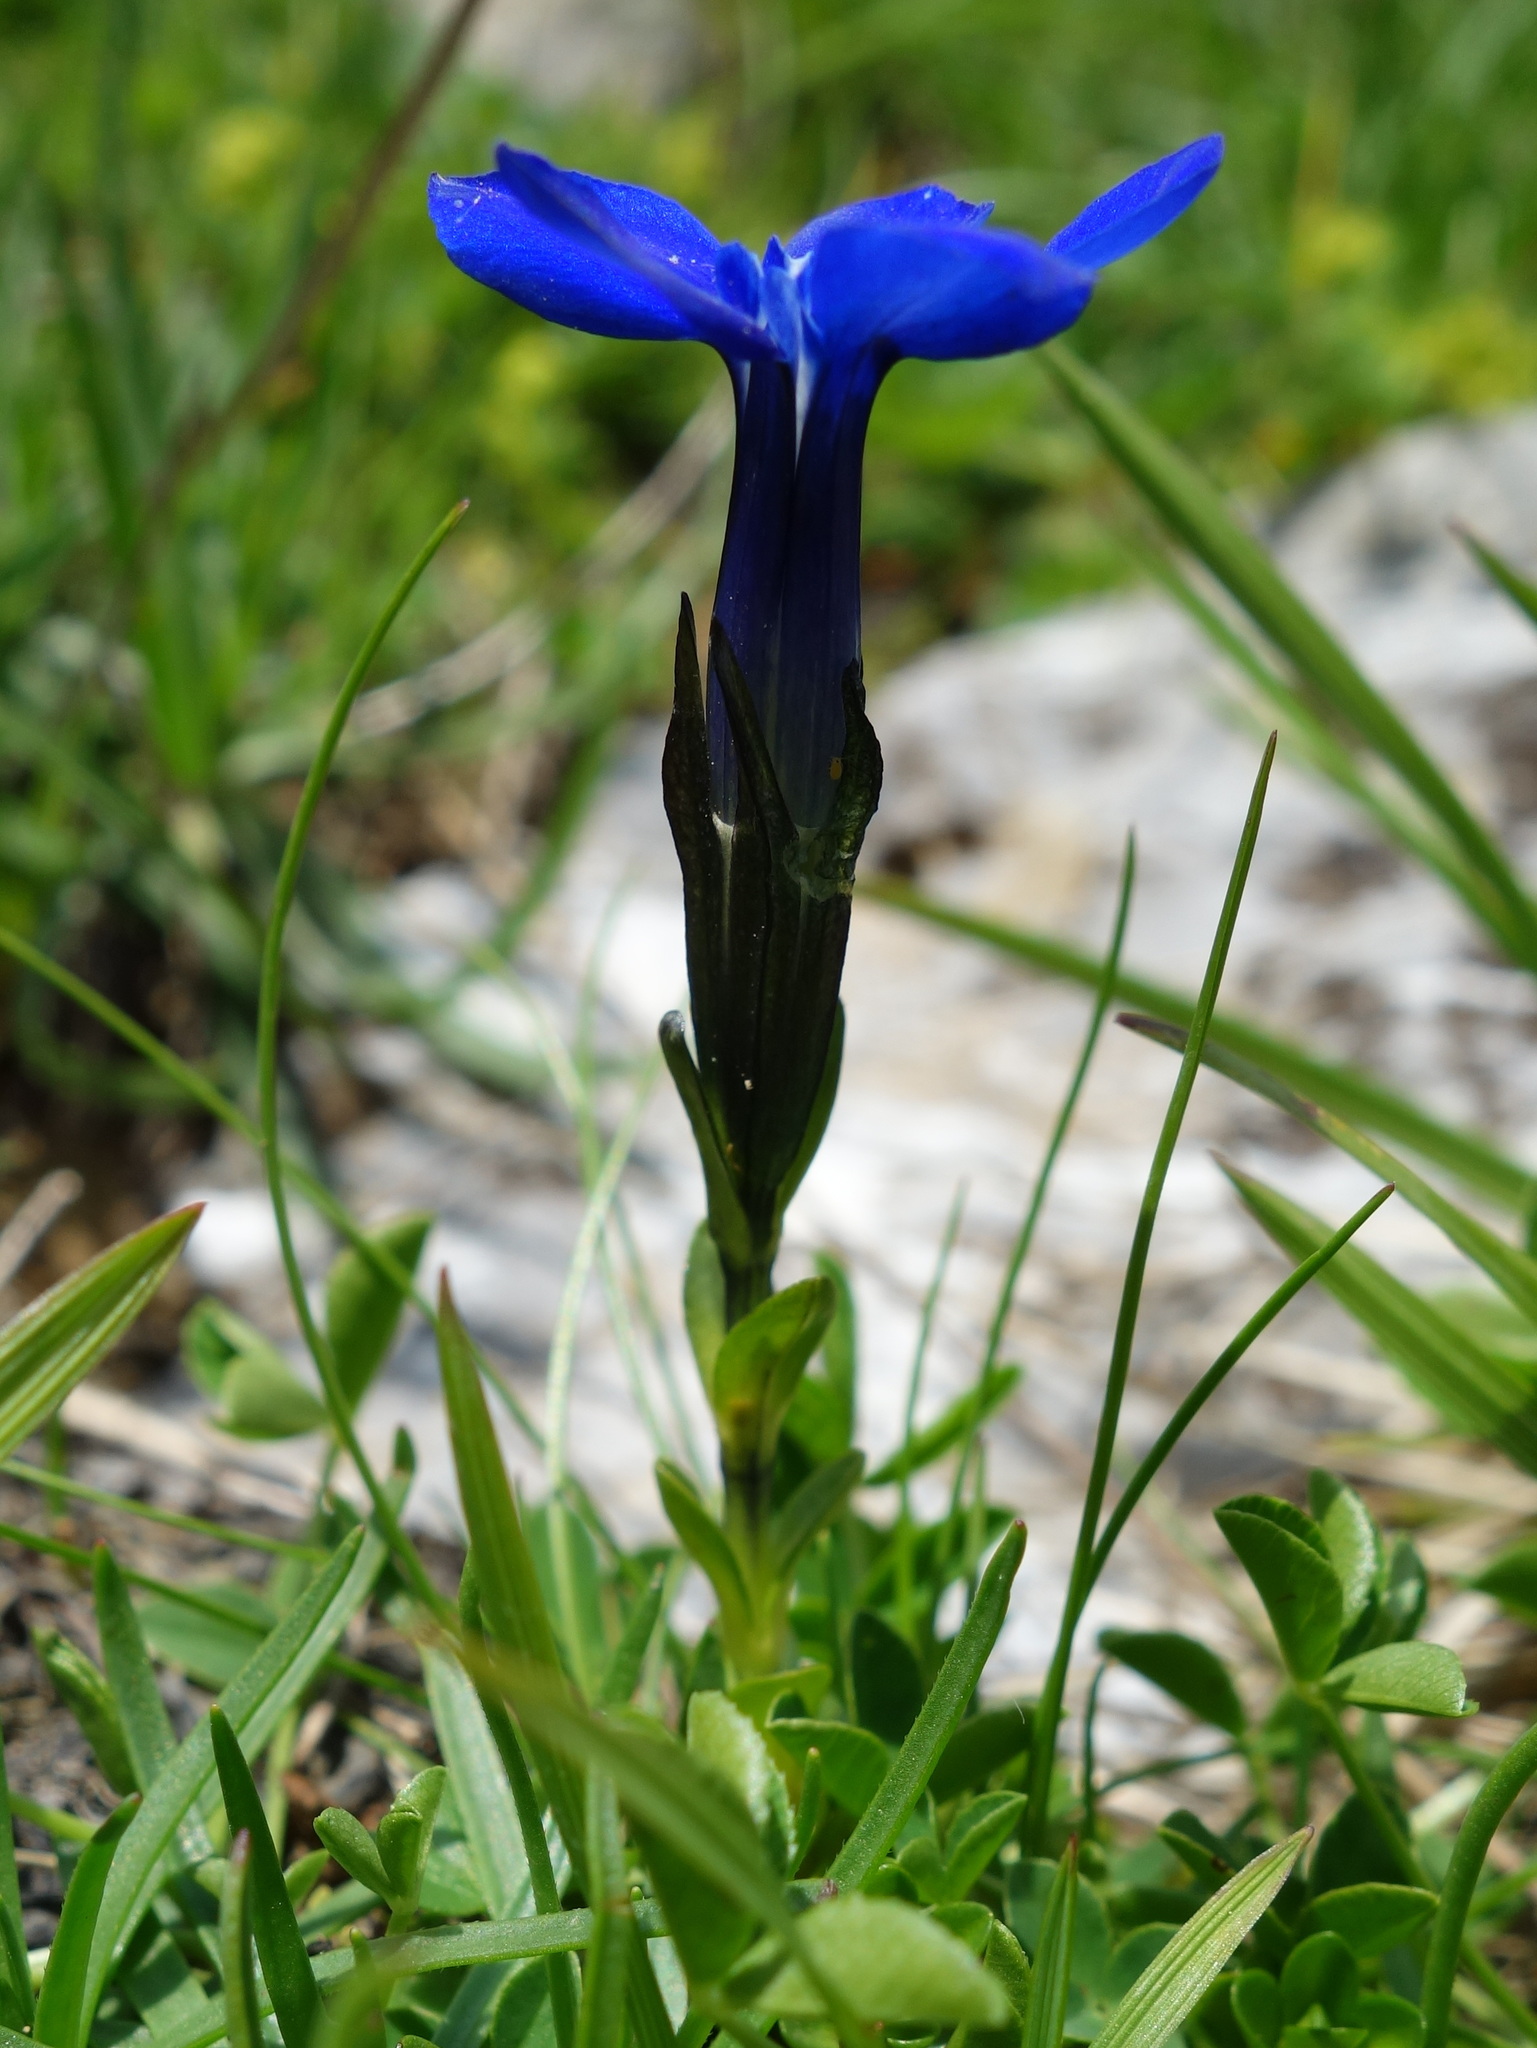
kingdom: Plantae
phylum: Tracheophyta
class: Magnoliopsida
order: Gentianales
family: Gentianaceae
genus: Gentiana
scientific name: Gentiana bavarica
